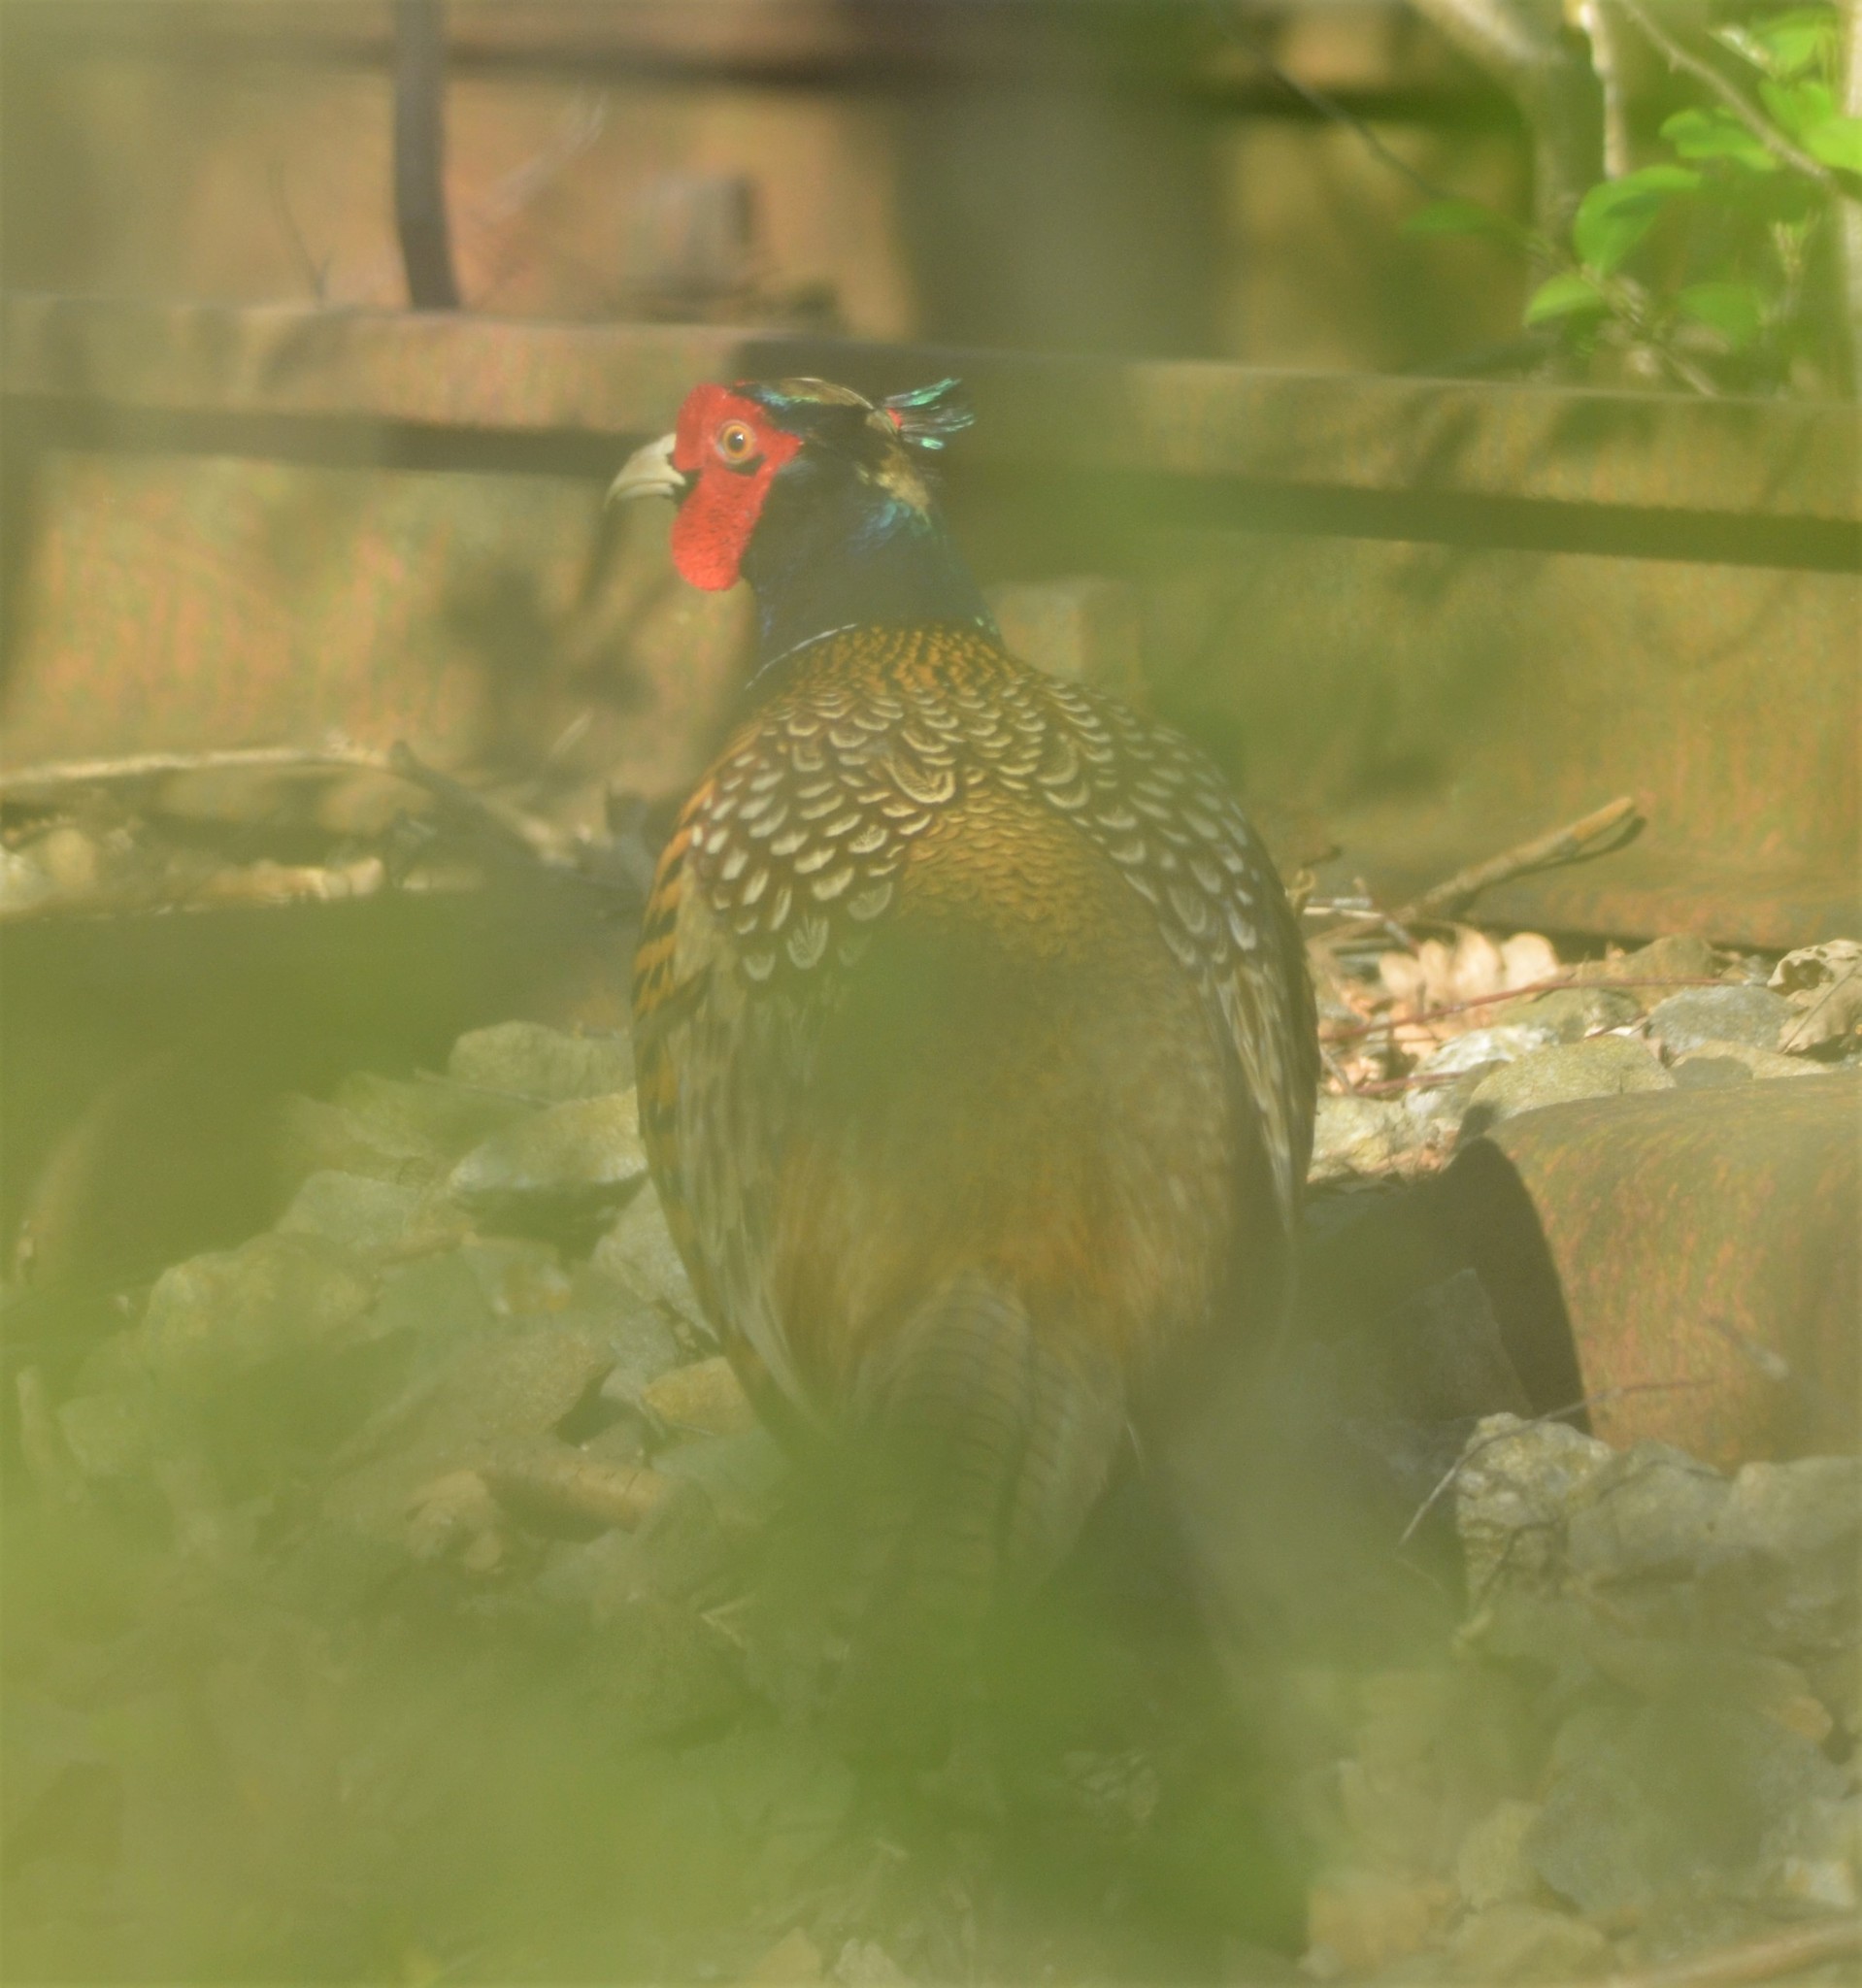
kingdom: Animalia
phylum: Chordata
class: Aves
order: Galliformes
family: Phasianidae
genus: Phasianus
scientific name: Phasianus colchicus
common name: Common pheasant
